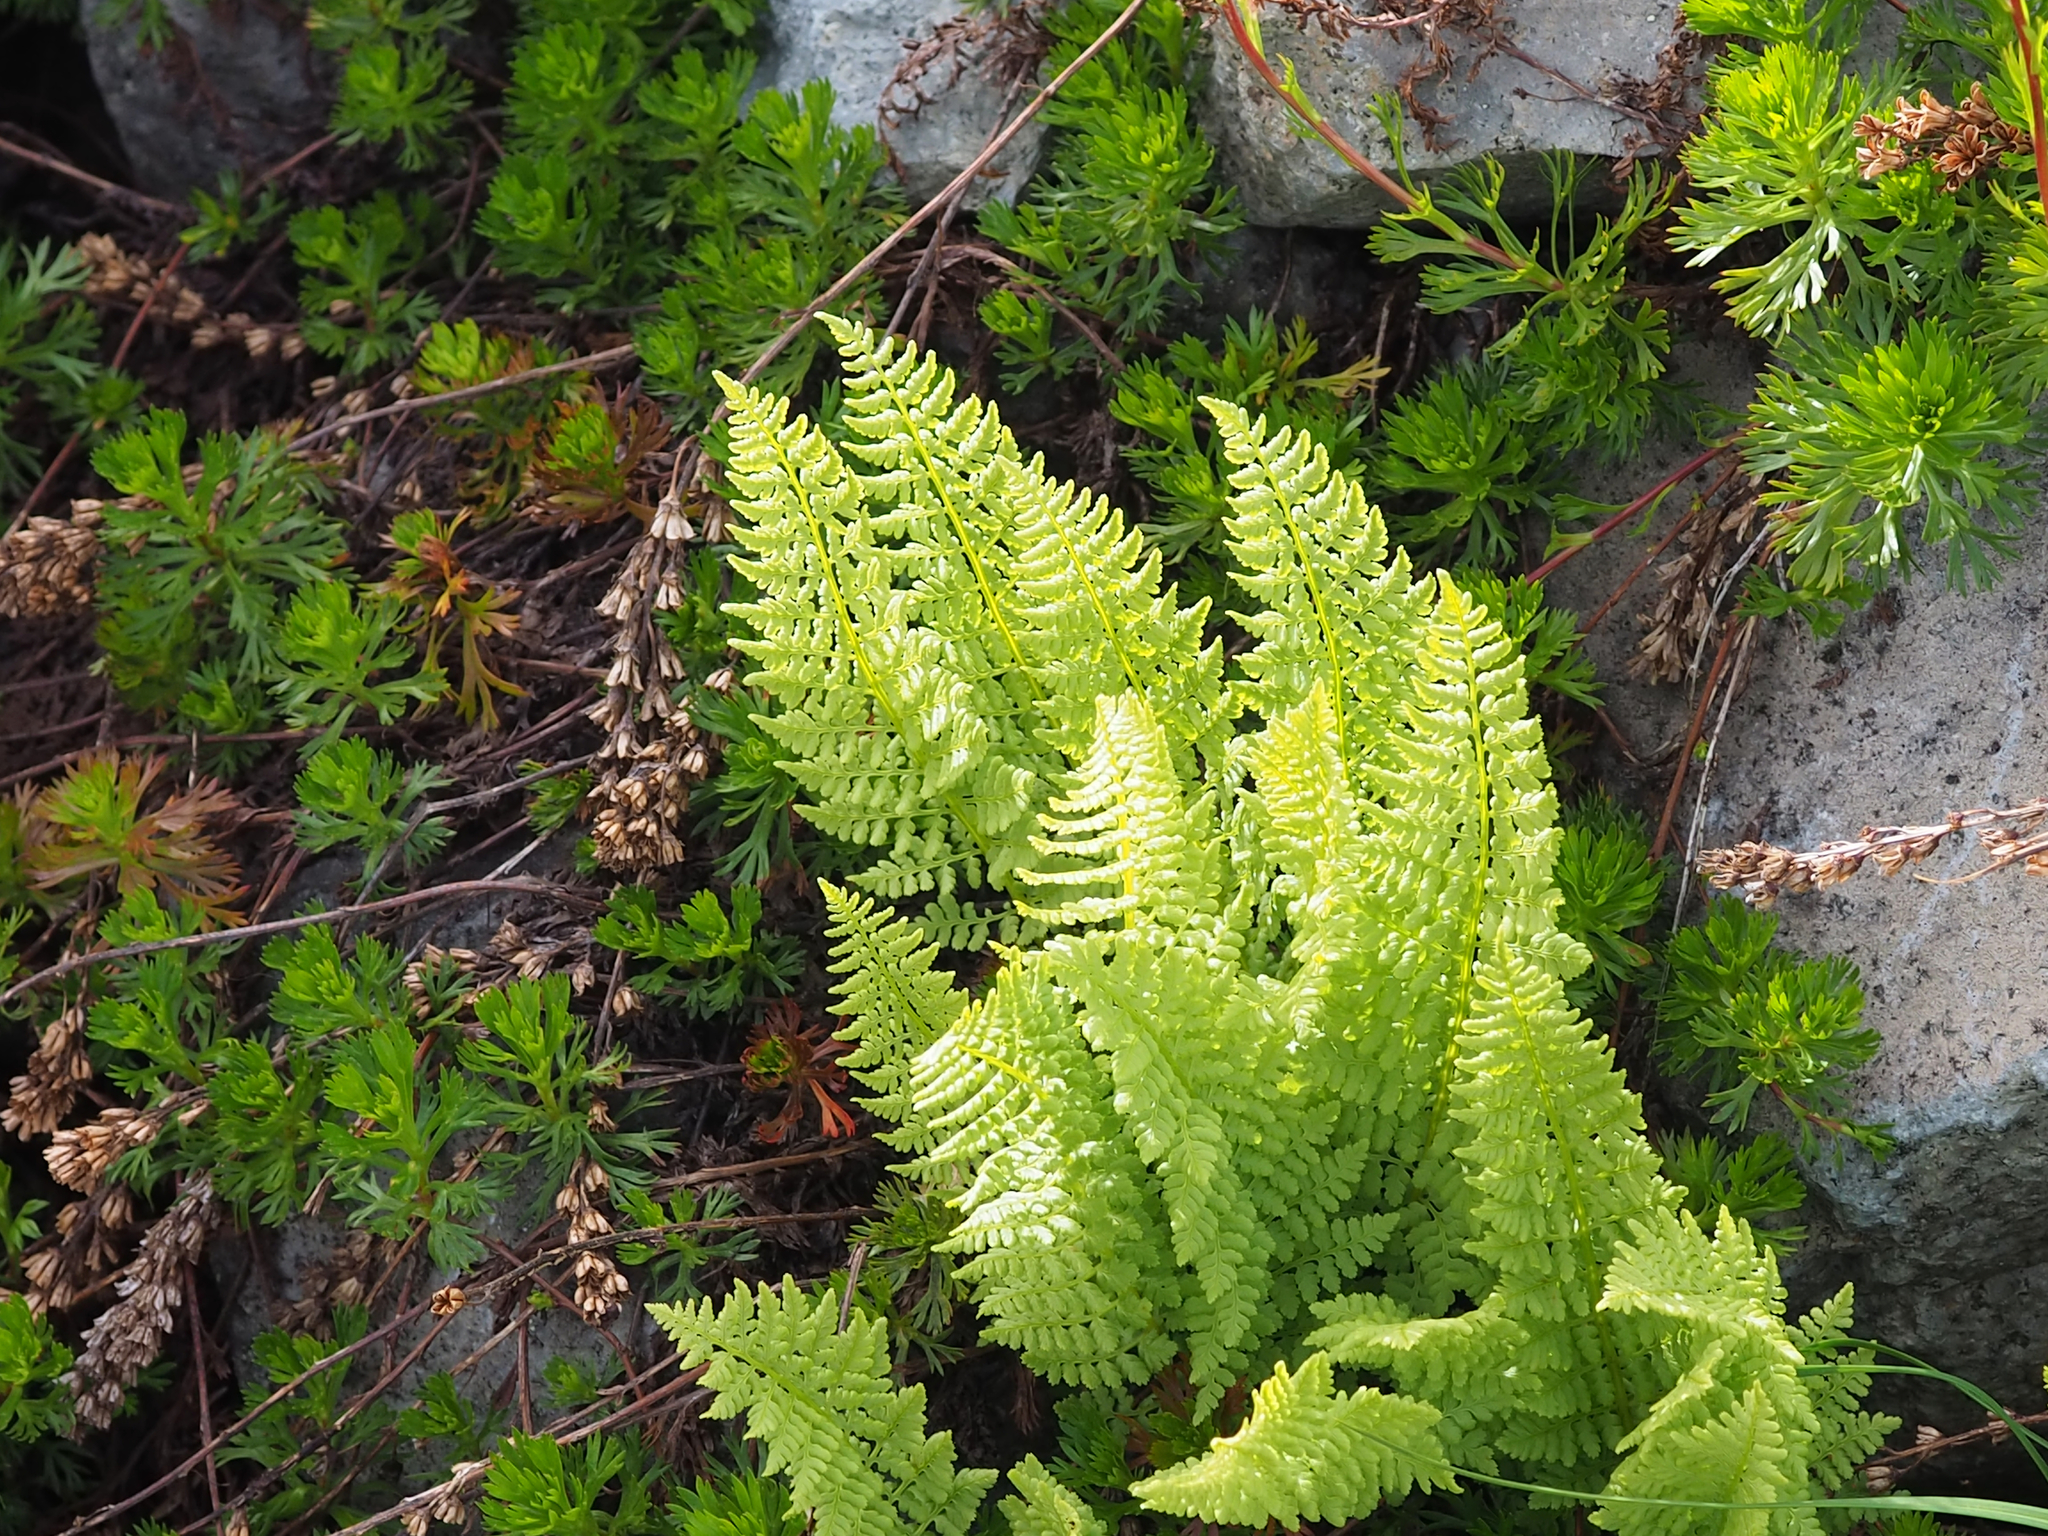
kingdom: Plantae
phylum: Tracheophyta
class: Polypodiopsida
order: Polypodiales
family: Athyriaceae
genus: Athyrium
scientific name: Athyrium americanum
